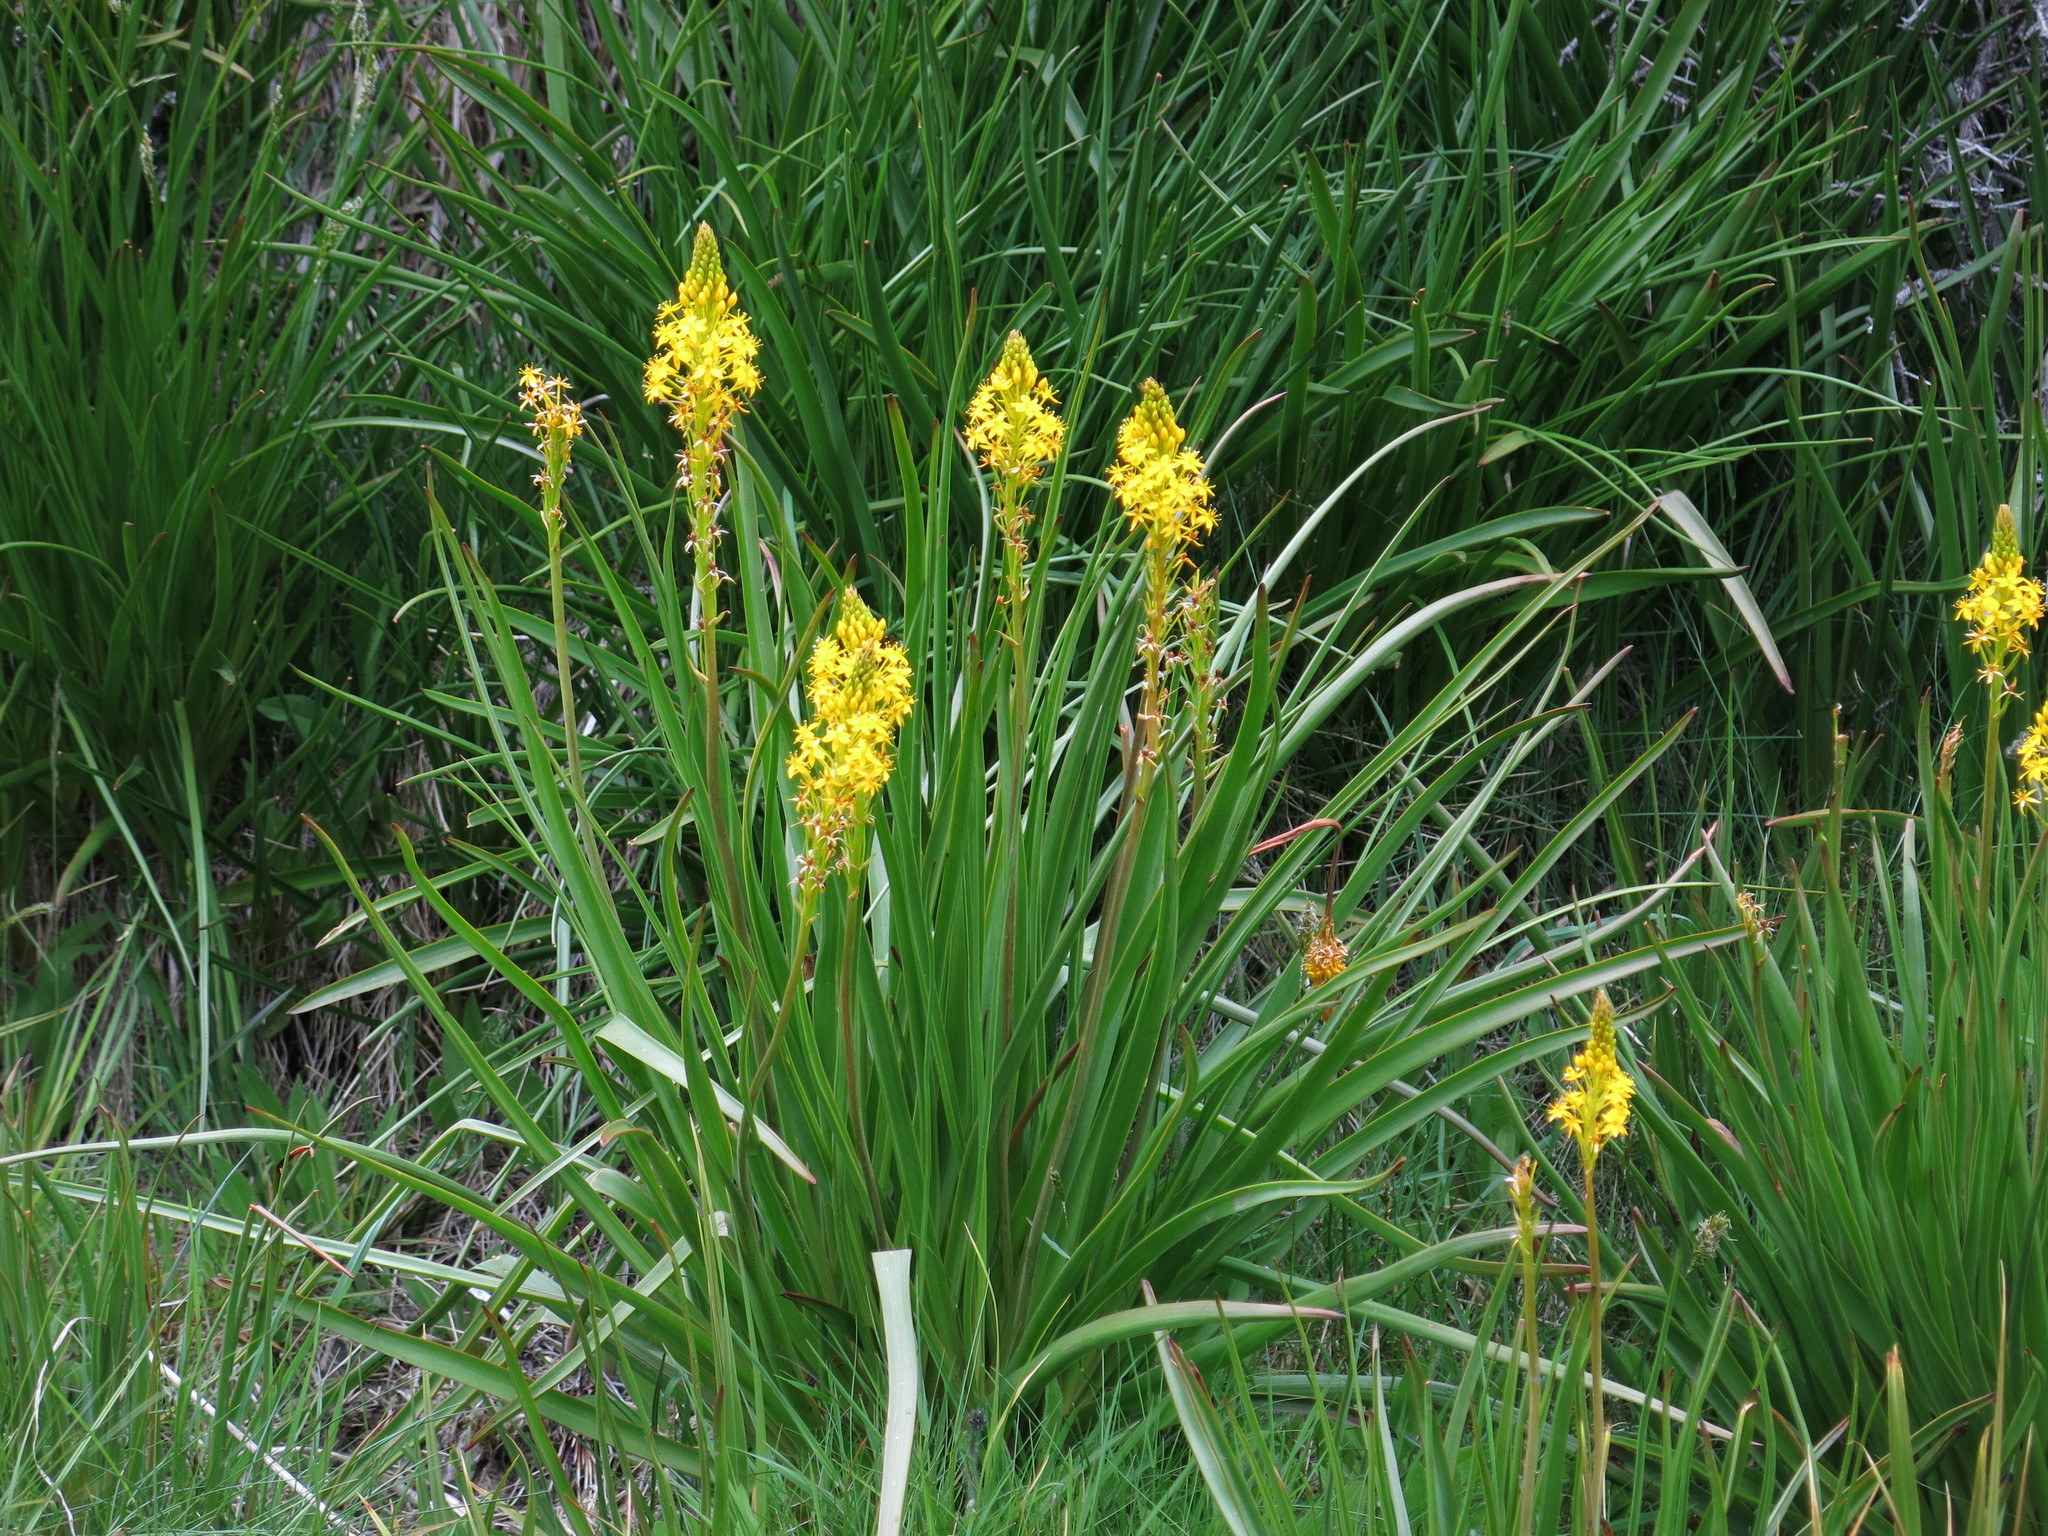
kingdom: Plantae
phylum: Tracheophyta
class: Liliopsida
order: Asparagales
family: Asphodelaceae
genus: Bulbinella
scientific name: Bulbinella hookeri
